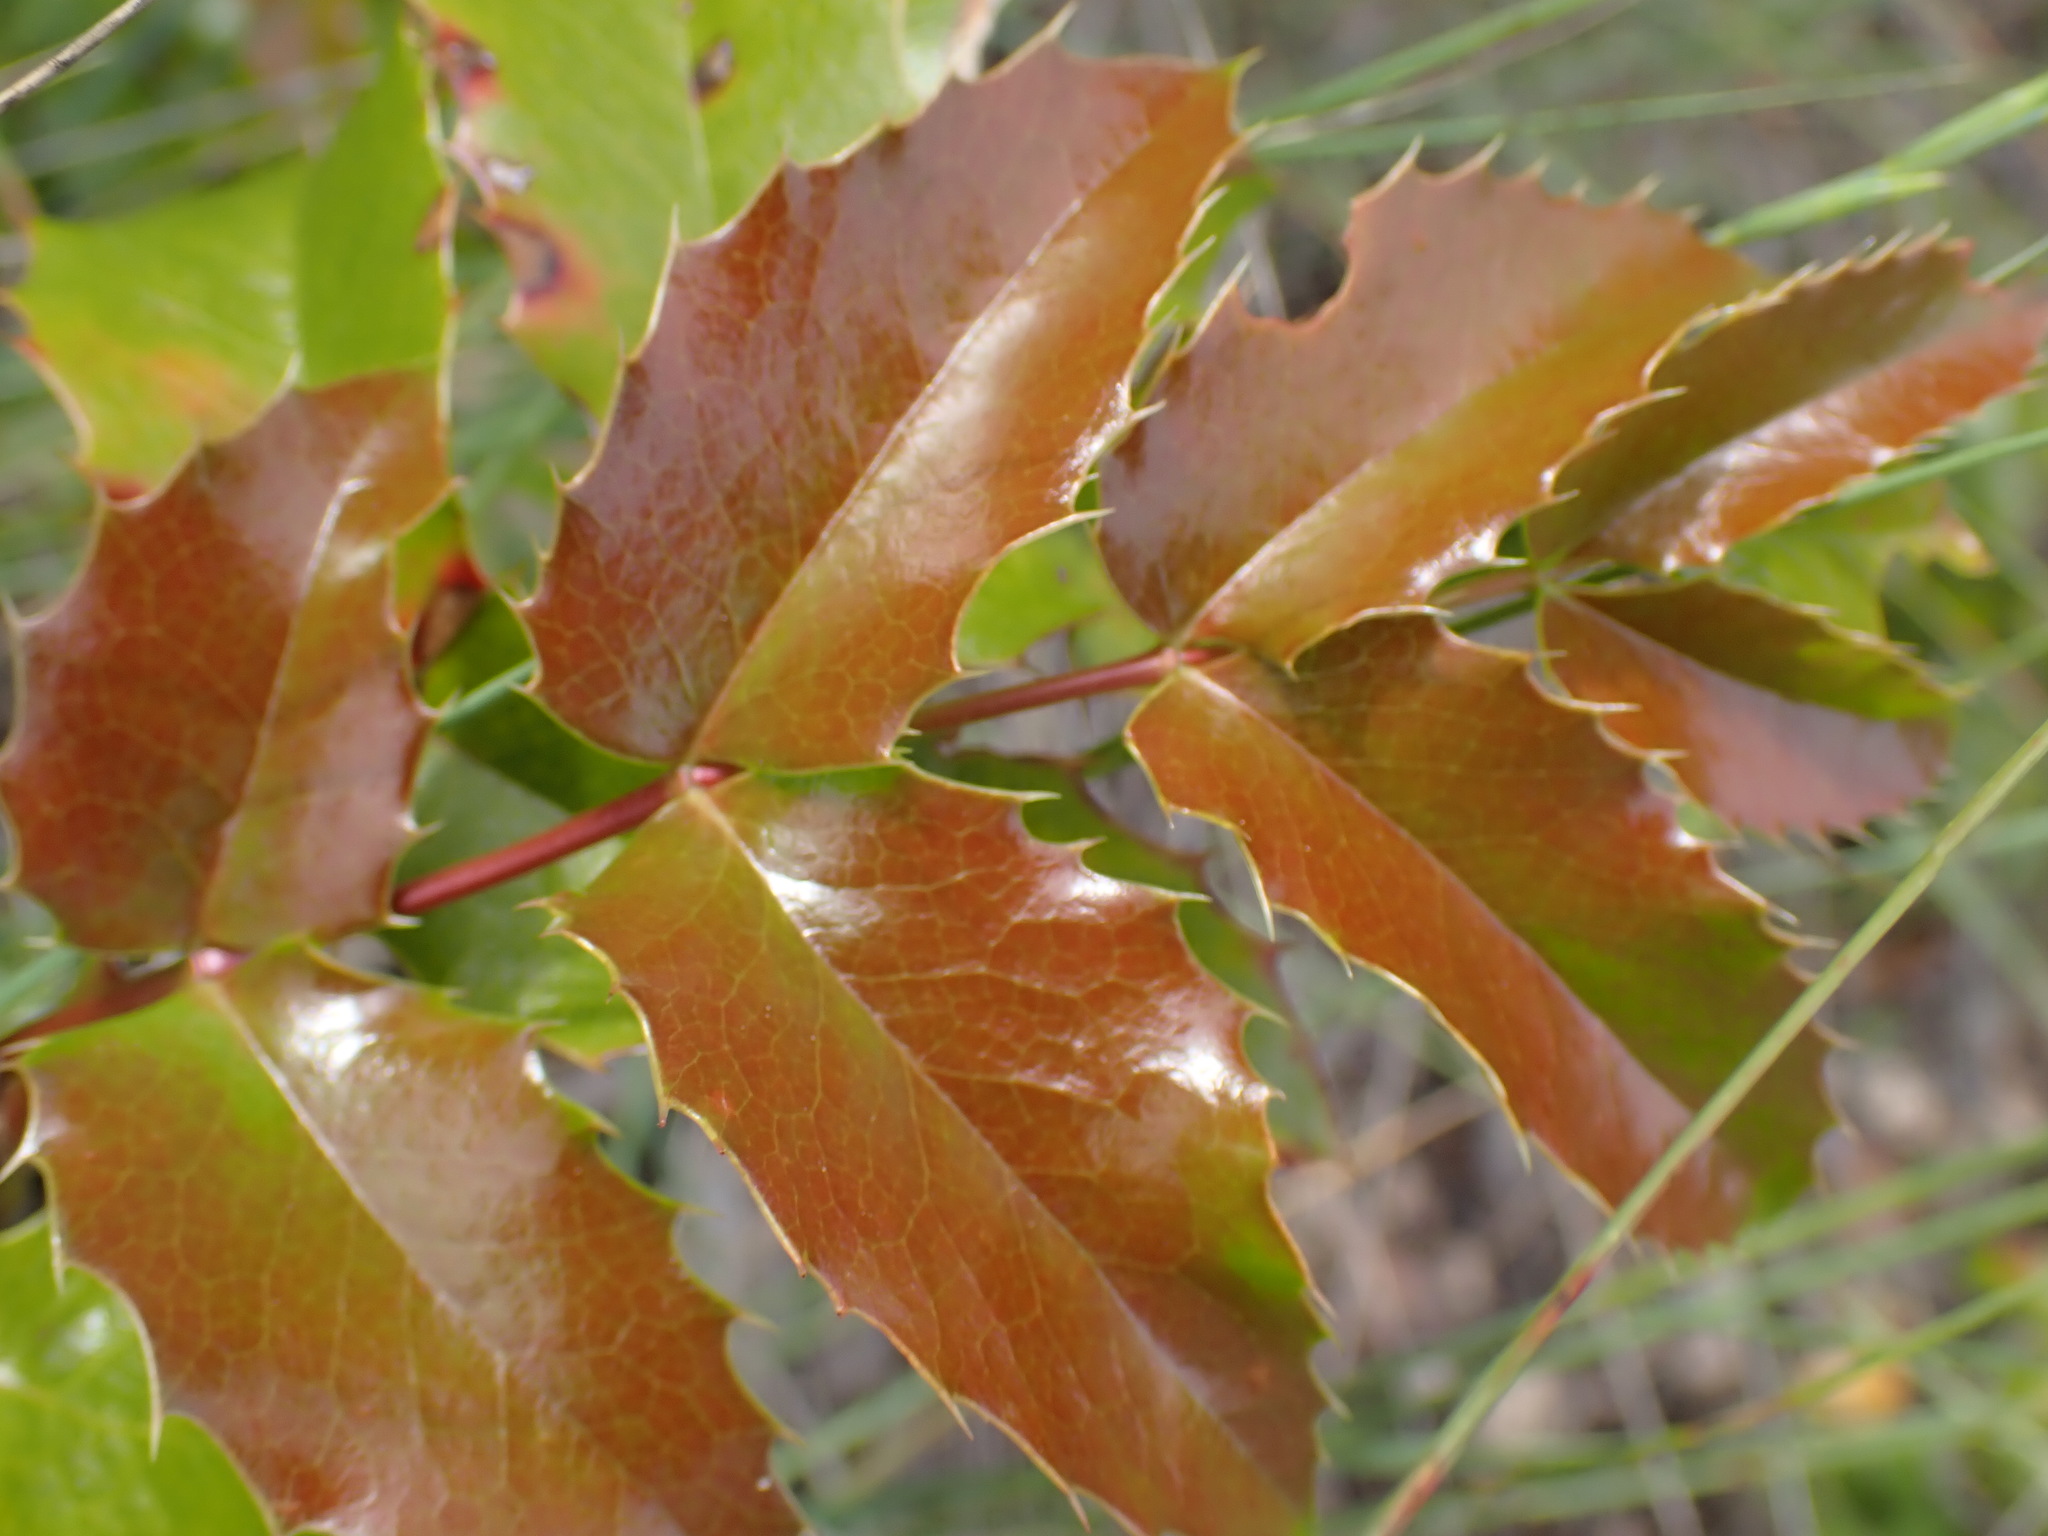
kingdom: Plantae
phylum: Tracheophyta
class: Magnoliopsida
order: Ranunculales
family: Berberidaceae
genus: Mahonia
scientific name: Mahonia aquifolium
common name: Oregon-grape
